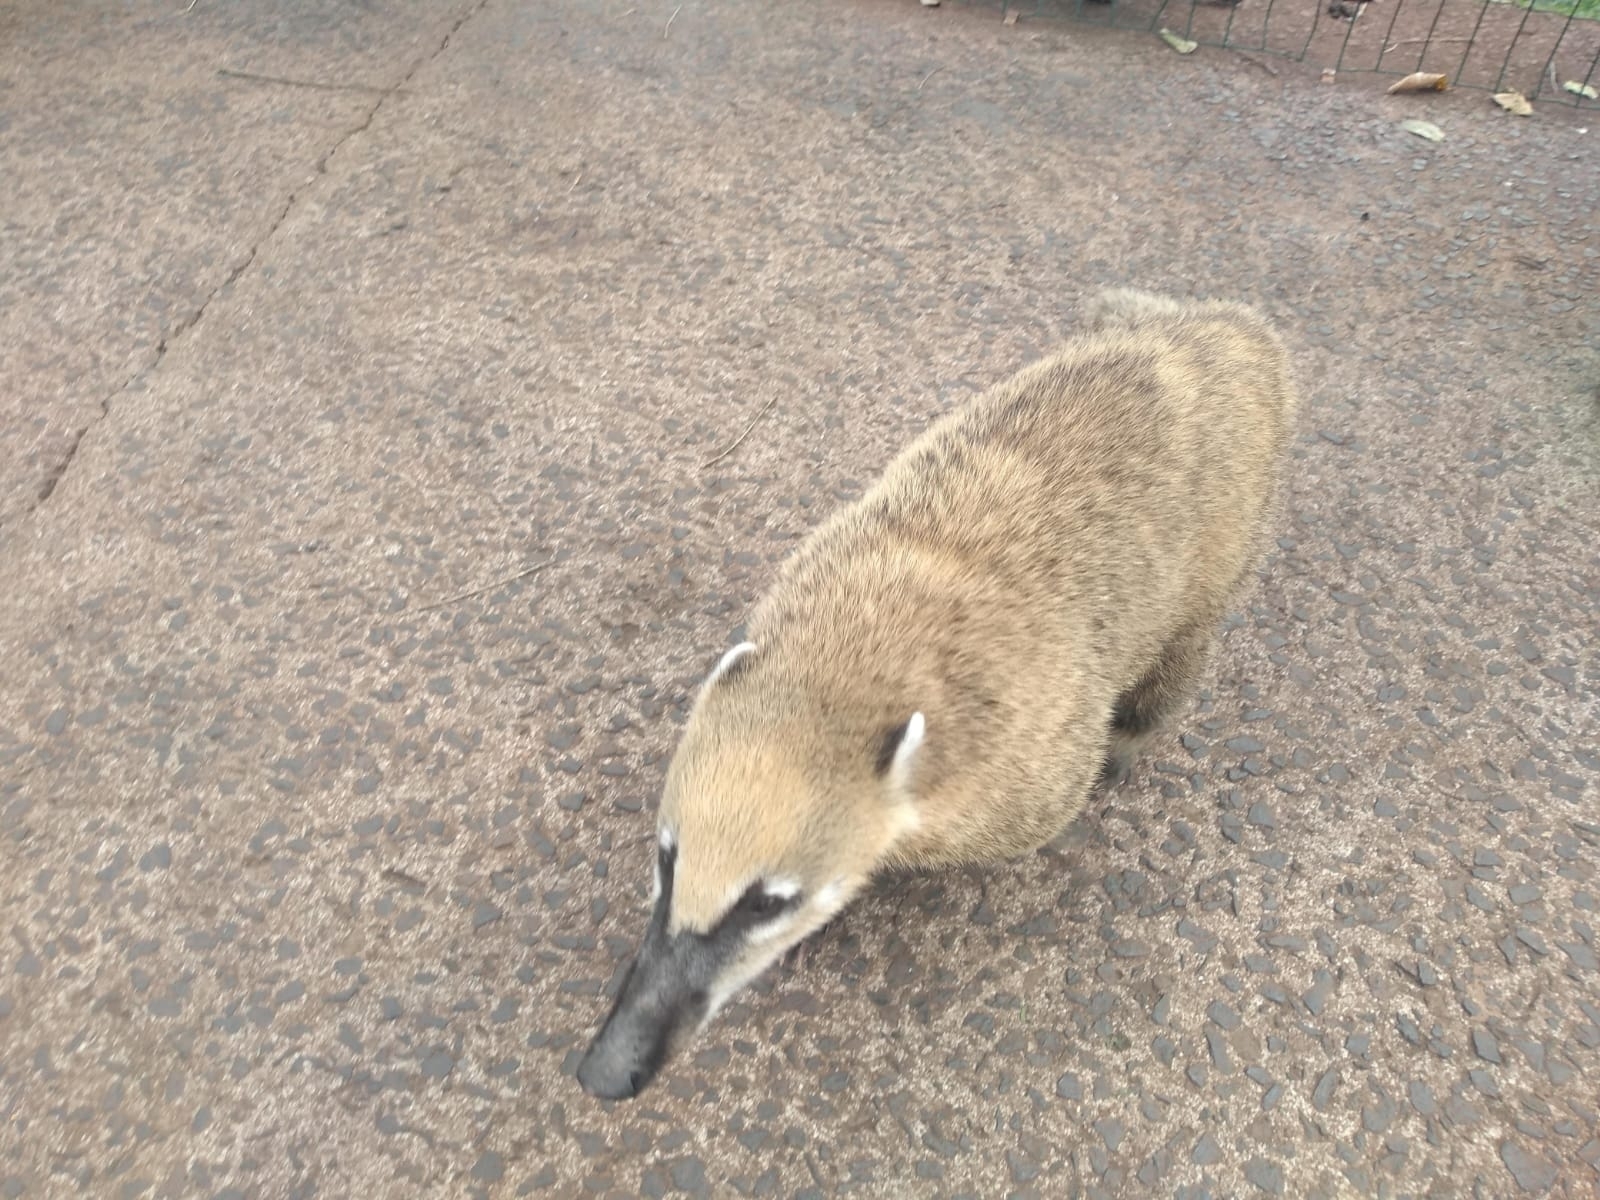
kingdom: Animalia
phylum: Chordata
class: Mammalia
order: Carnivora
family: Procyonidae
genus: Nasua
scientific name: Nasua nasua
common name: South american coati
